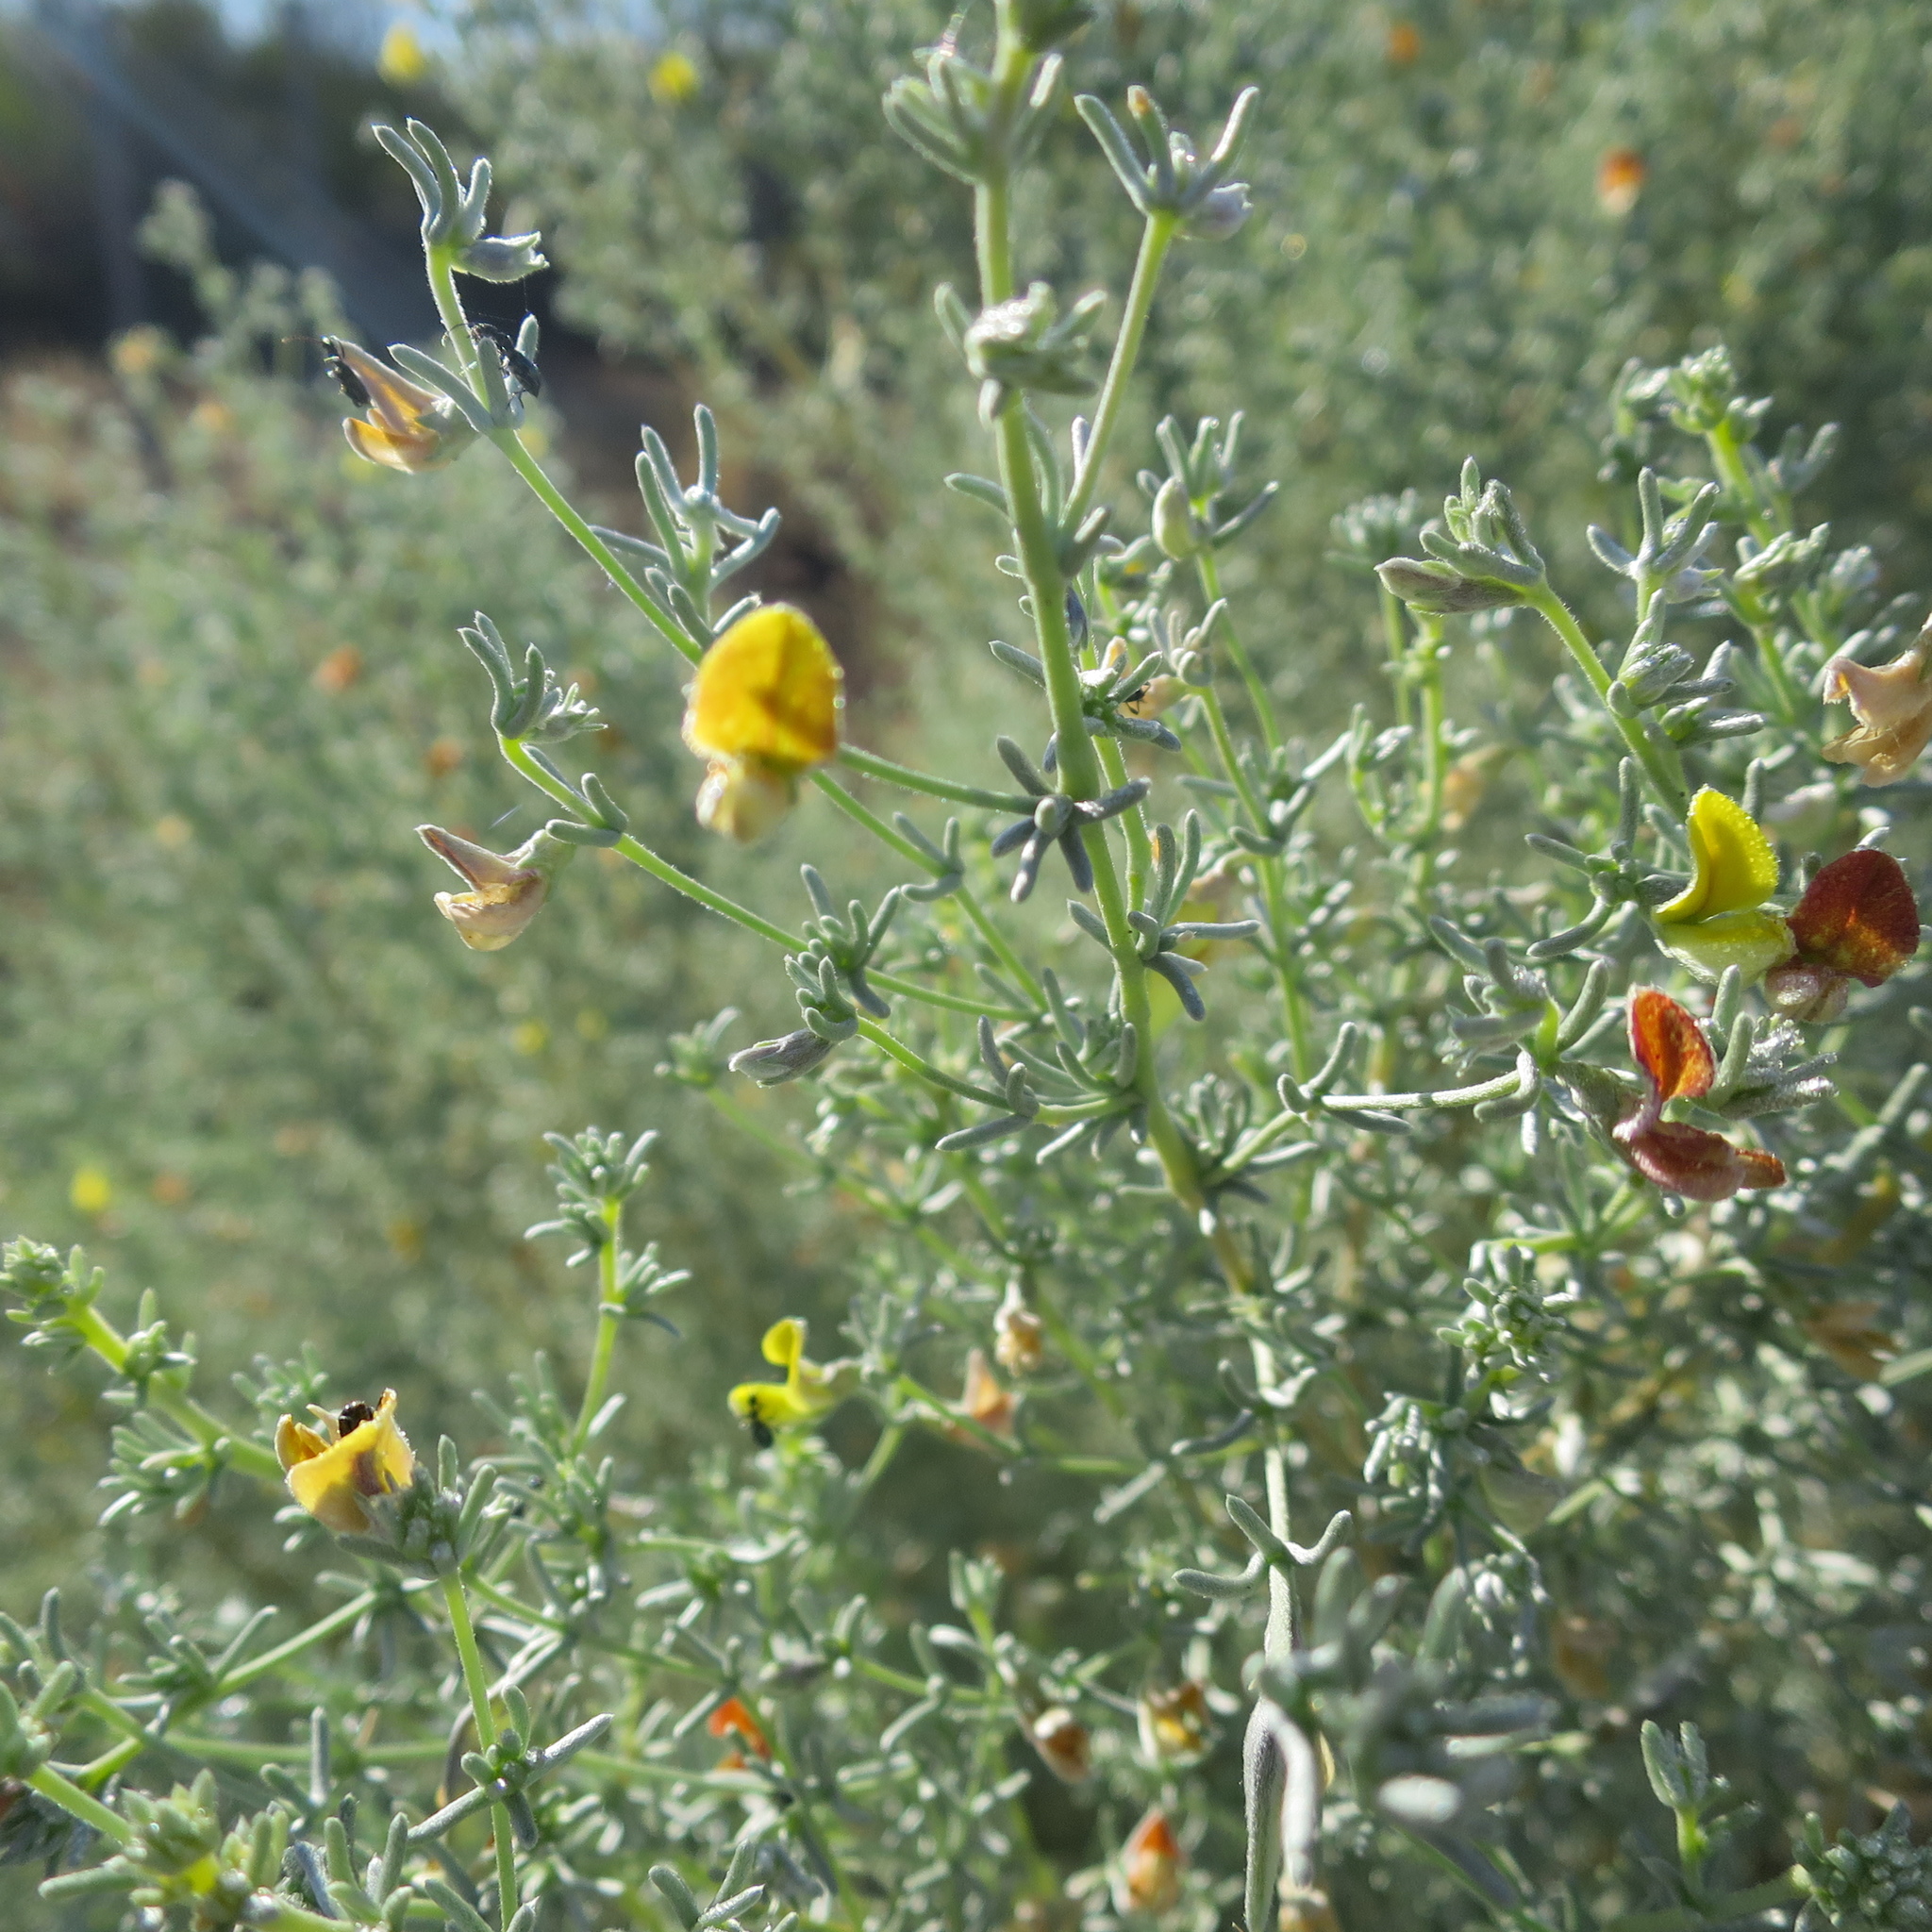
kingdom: Plantae
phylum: Tracheophyta
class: Magnoliopsida
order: Fabales
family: Fabaceae
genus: Aspalathus
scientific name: Aspalathus pedunculata
